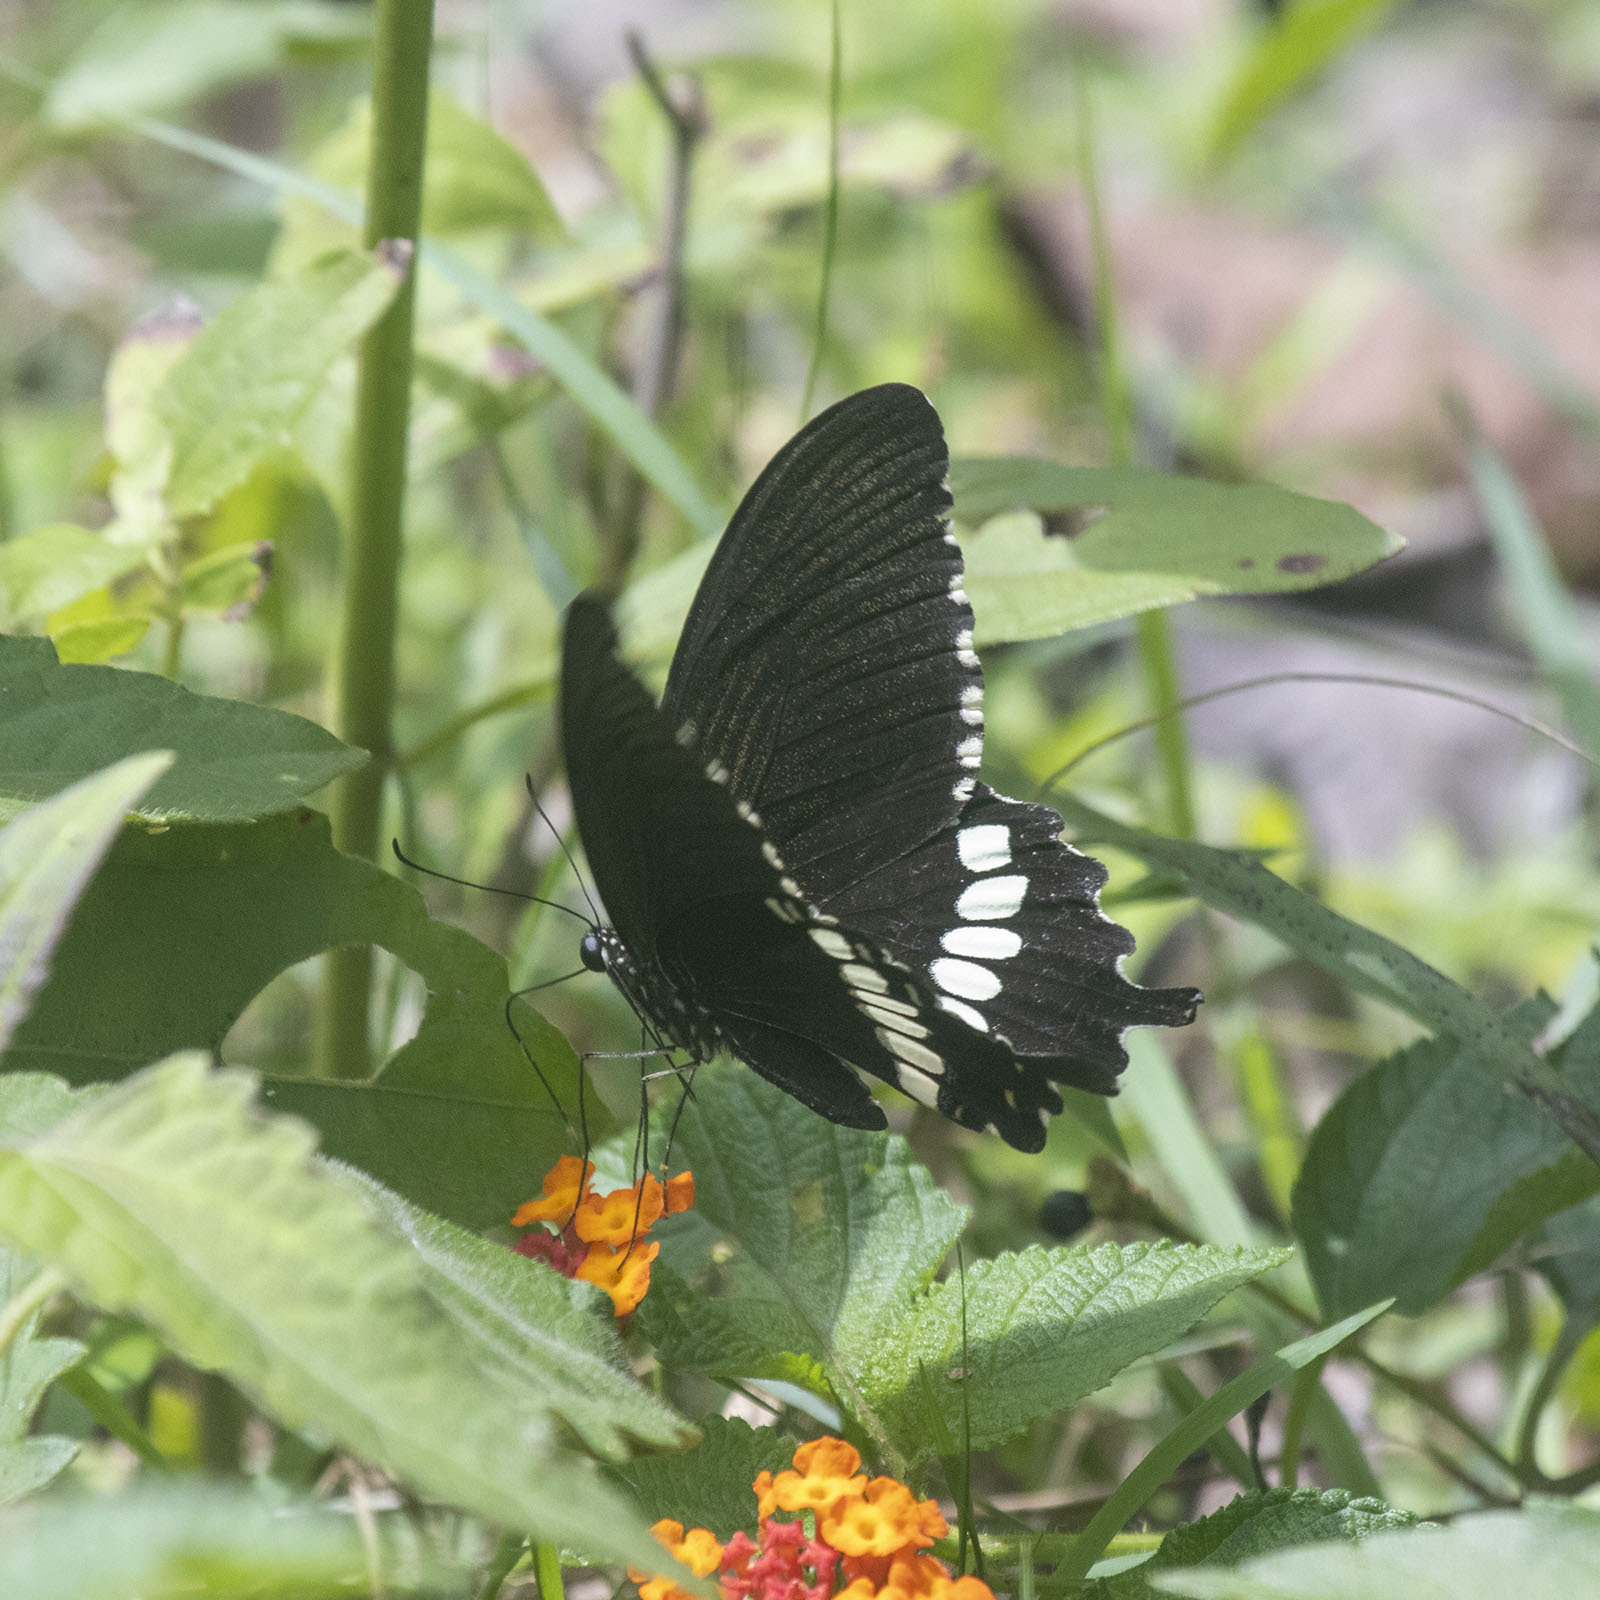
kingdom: Animalia
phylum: Arthropoda
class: Insecta
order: Lepidoptera
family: Papilionidae
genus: Papilio
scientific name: Papilio polytes
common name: Common mormon
